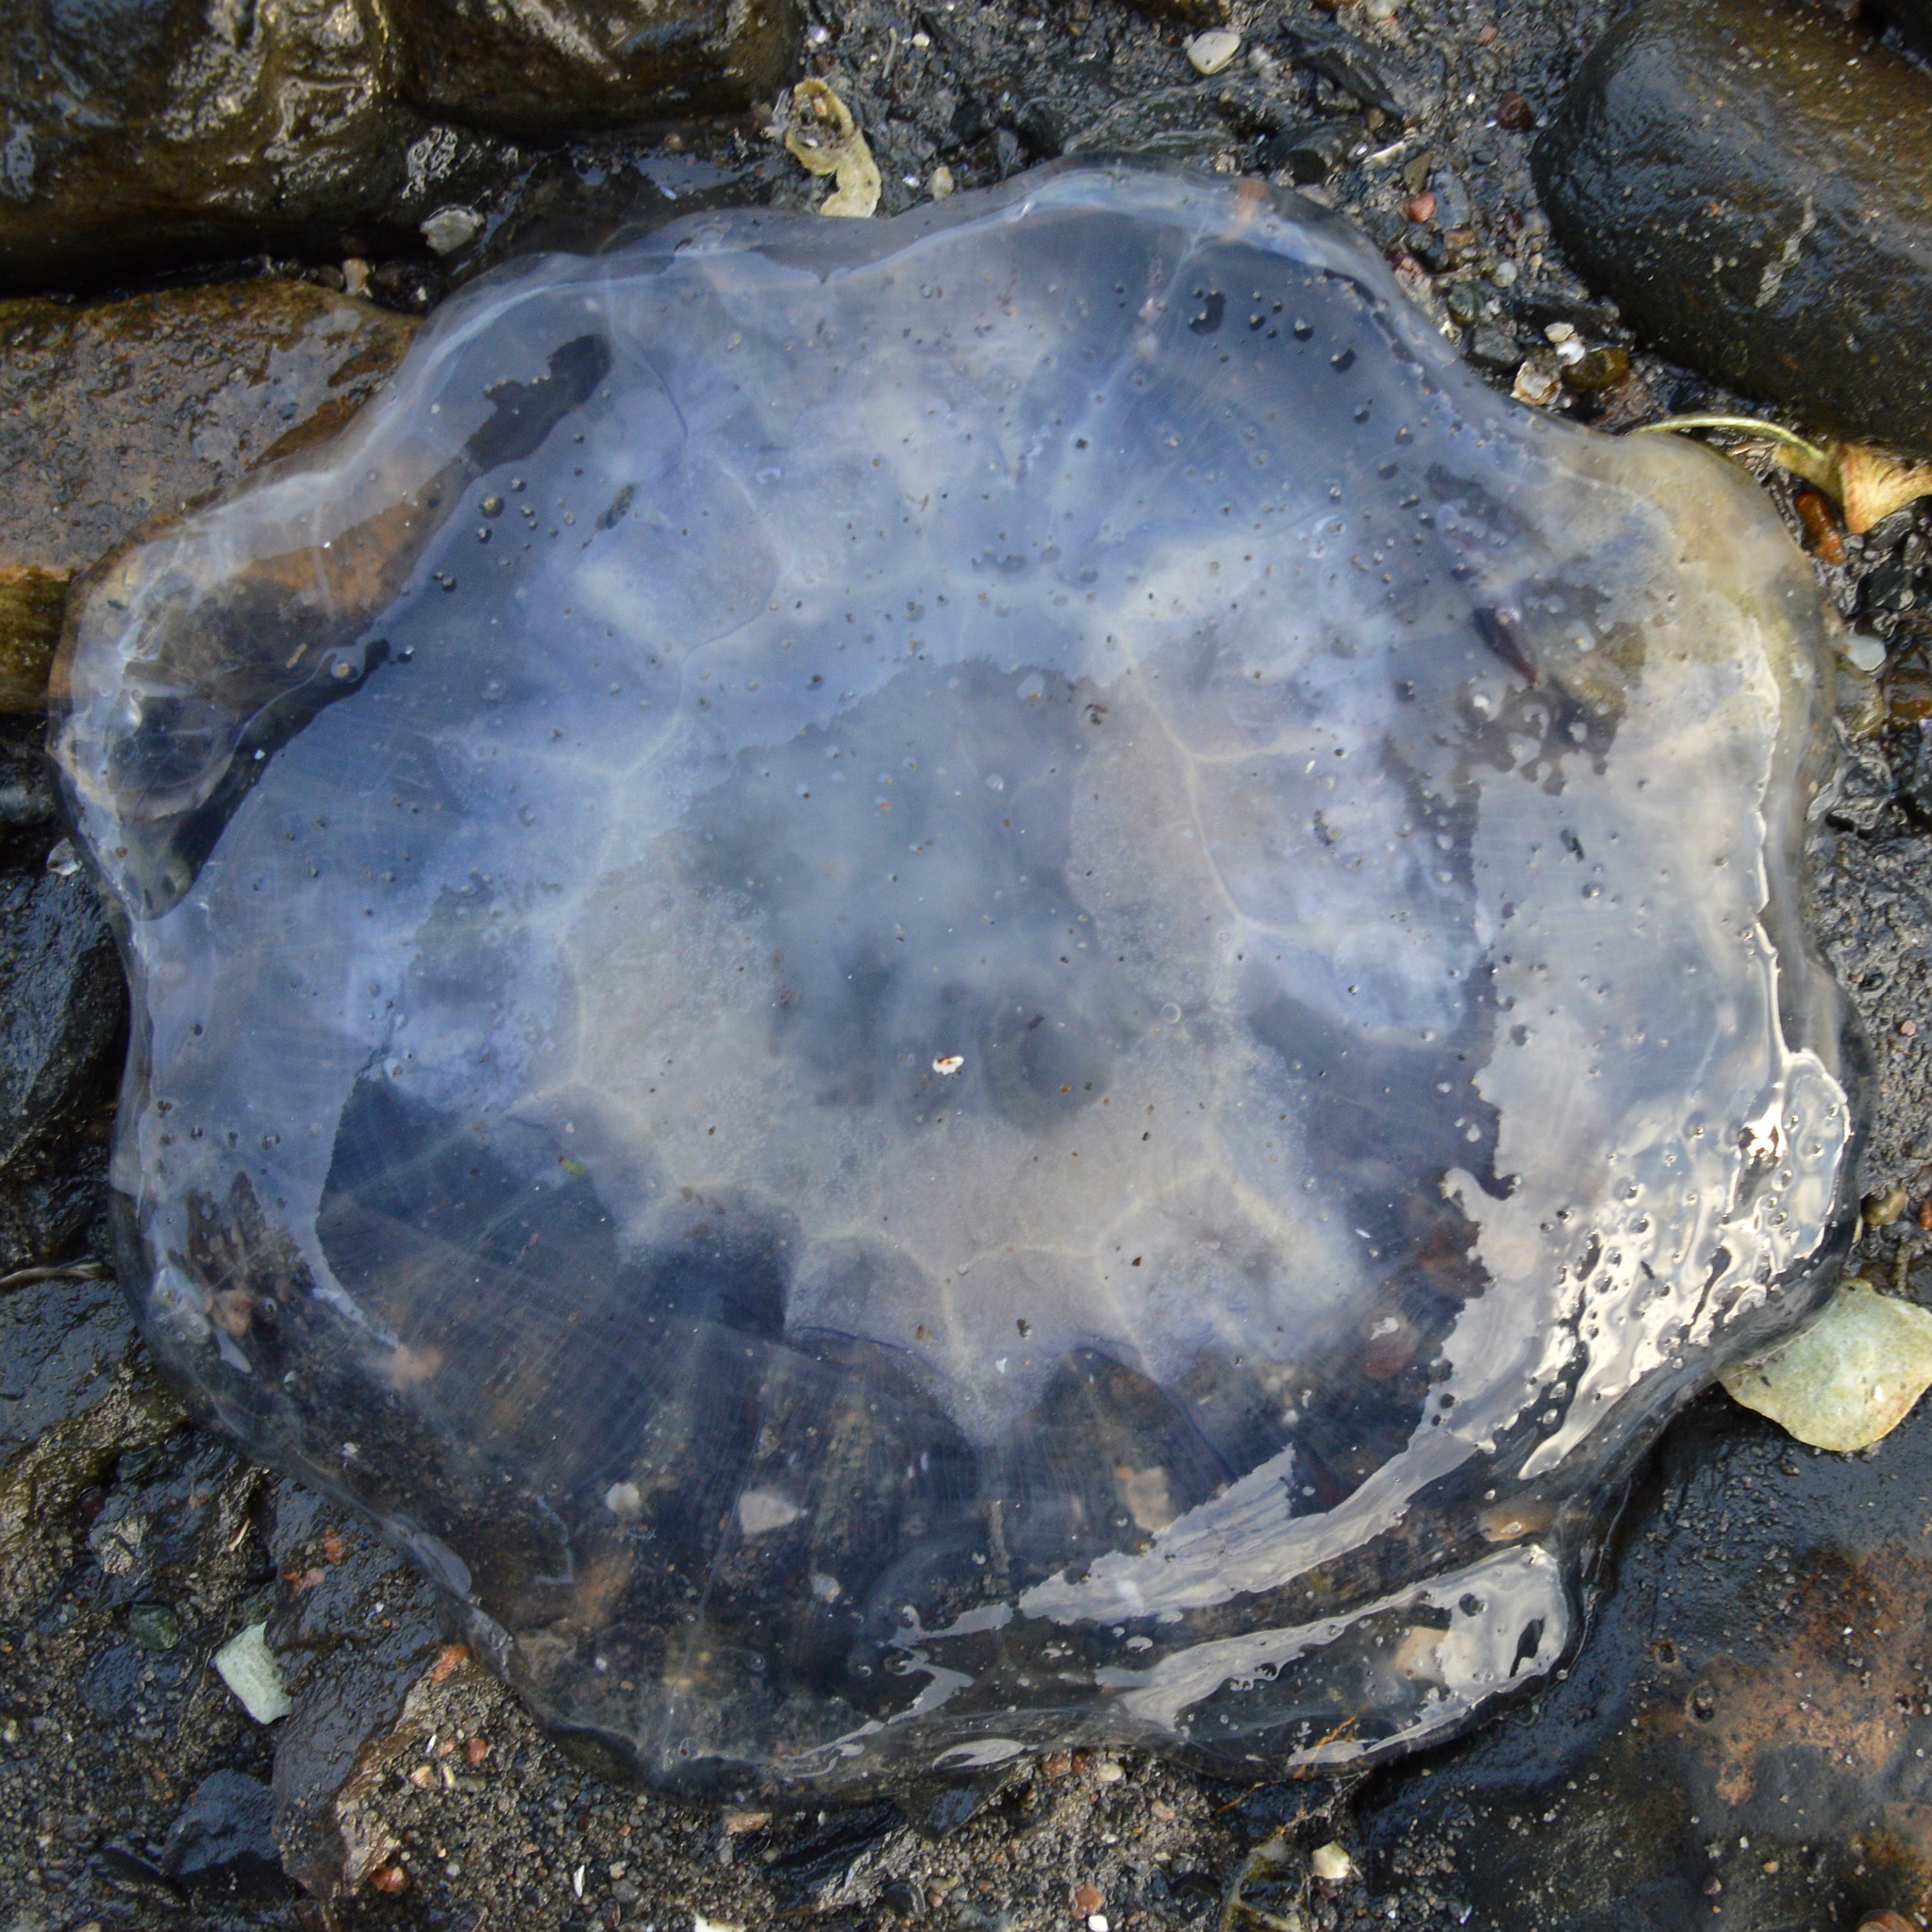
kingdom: Animalia
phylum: Cnidaria
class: Scyphozoa
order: Semaeostomeae
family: Cyaneidae
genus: Cyanea
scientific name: Cyanea lamarckii
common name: Blue jellyfish
